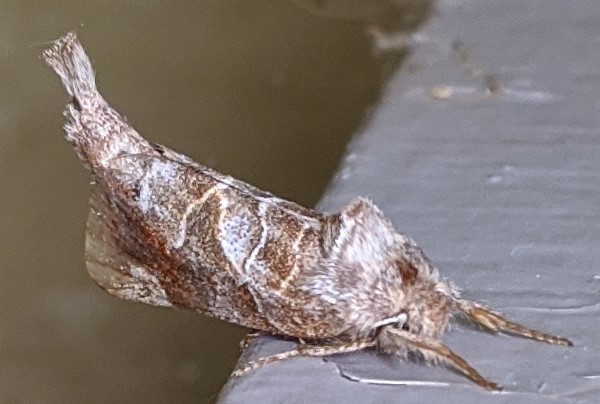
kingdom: Animalia
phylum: Arthropoda
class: Insecta
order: Lepidoptera
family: Notodontidae
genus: Clostera
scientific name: Clostera strigosa
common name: Striped chocolate-tip moth
